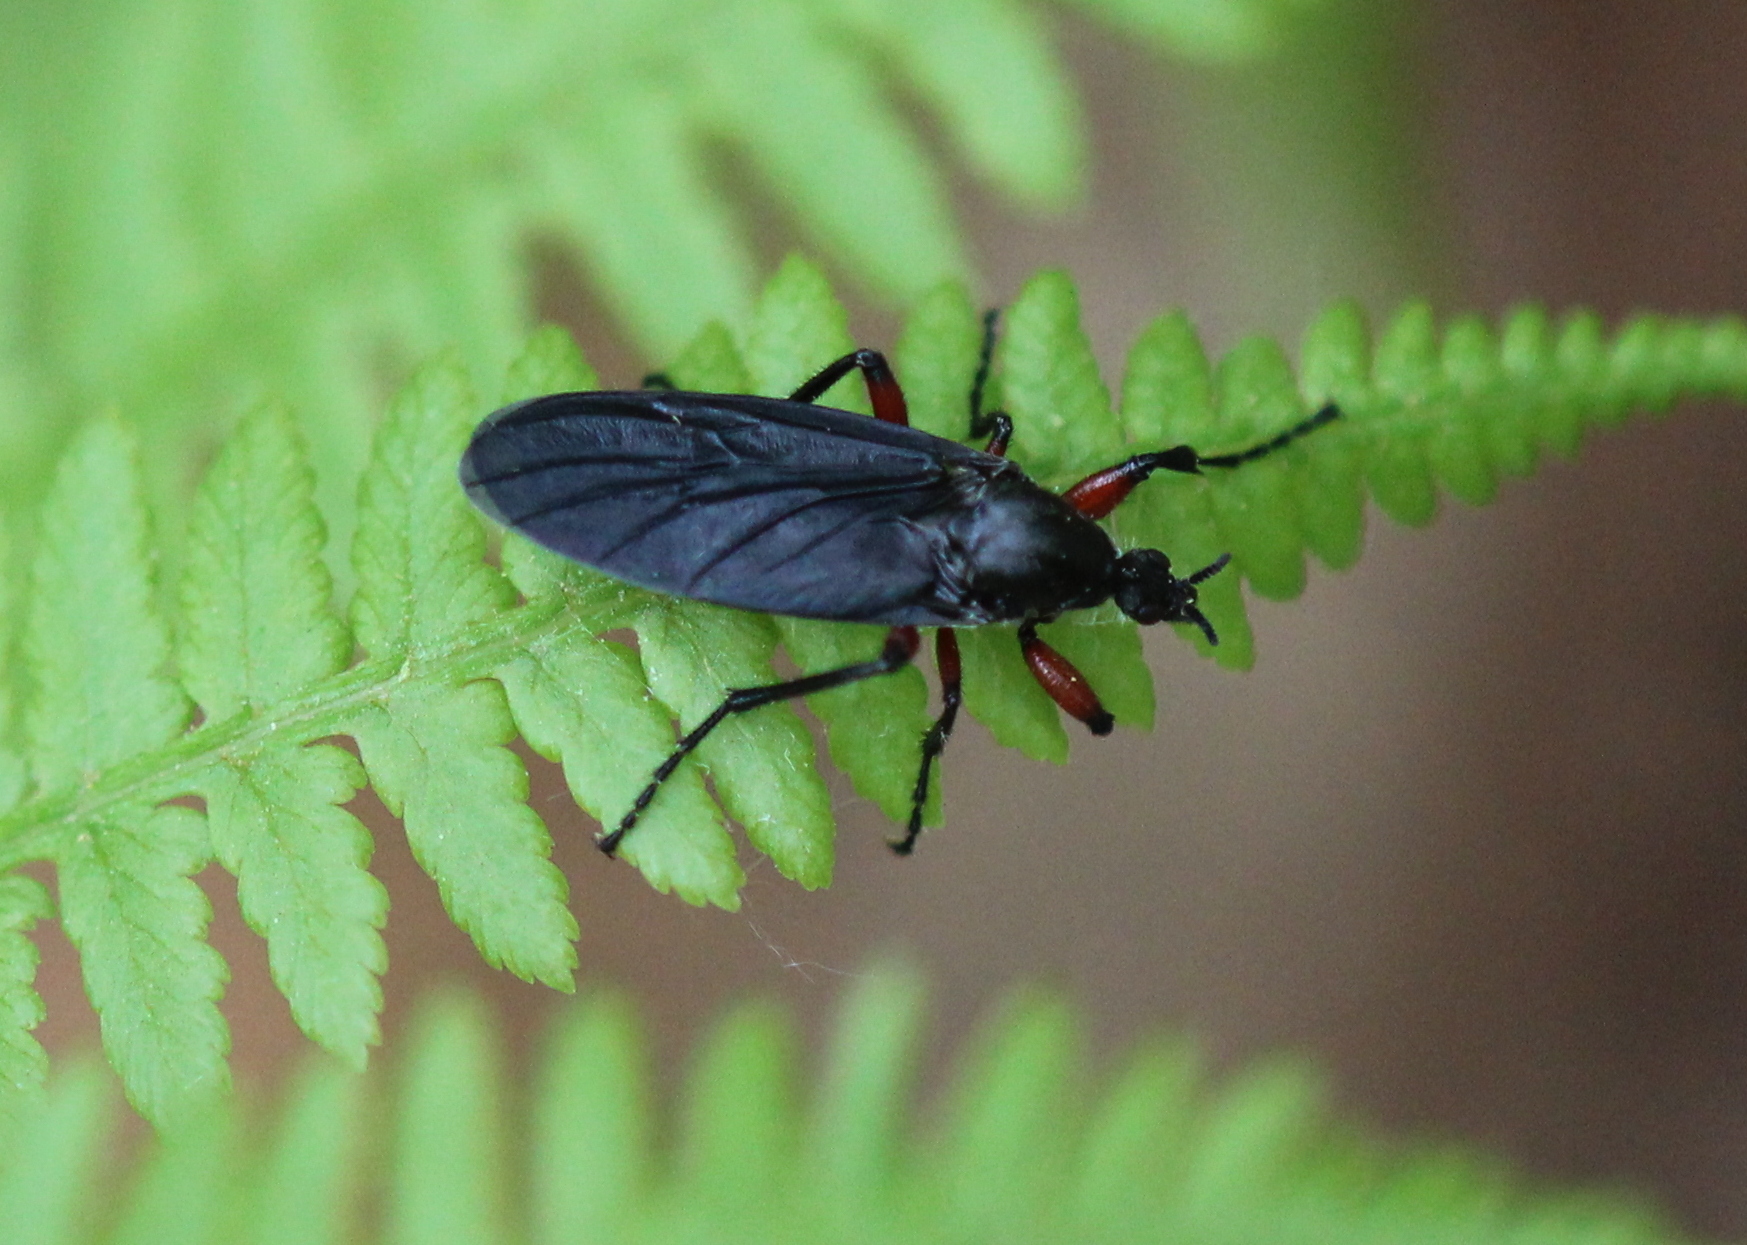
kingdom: Animalia
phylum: Arthropoda
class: Insecta
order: Diptera
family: Bibionidae
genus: Bibio
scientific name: Bibio femoratus
